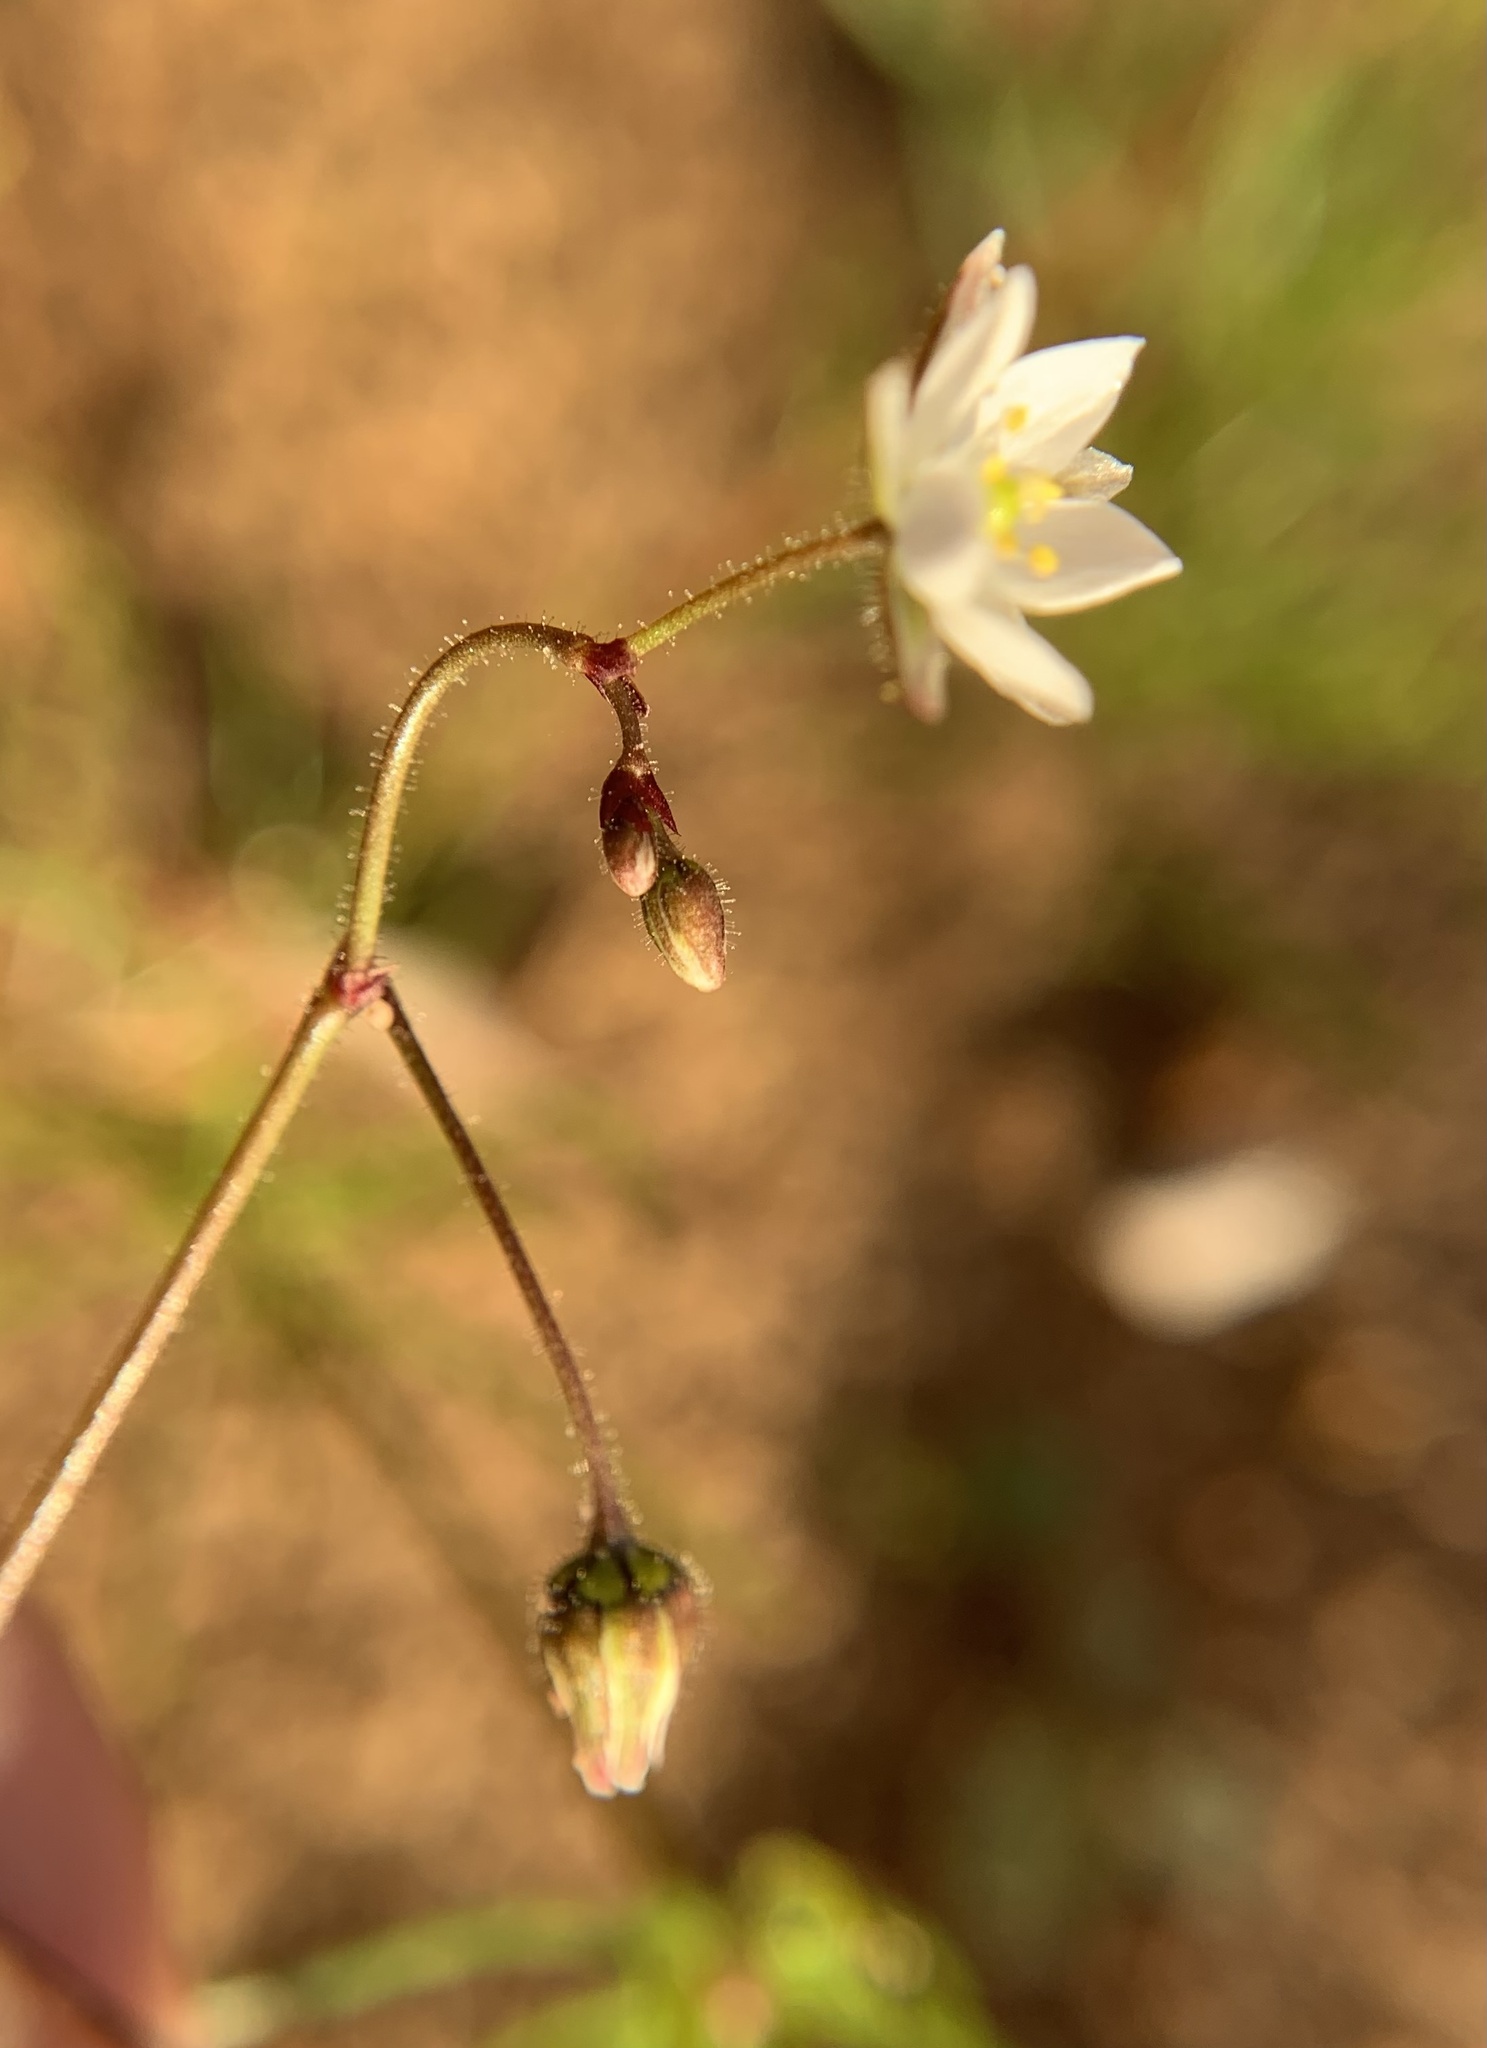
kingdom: Plantae
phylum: Tracheophyta
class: Magnoliopsida
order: Caryophyllales
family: Caryophyllaceae
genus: Spergula
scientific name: Spergula arvensis
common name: Corn spurrey
